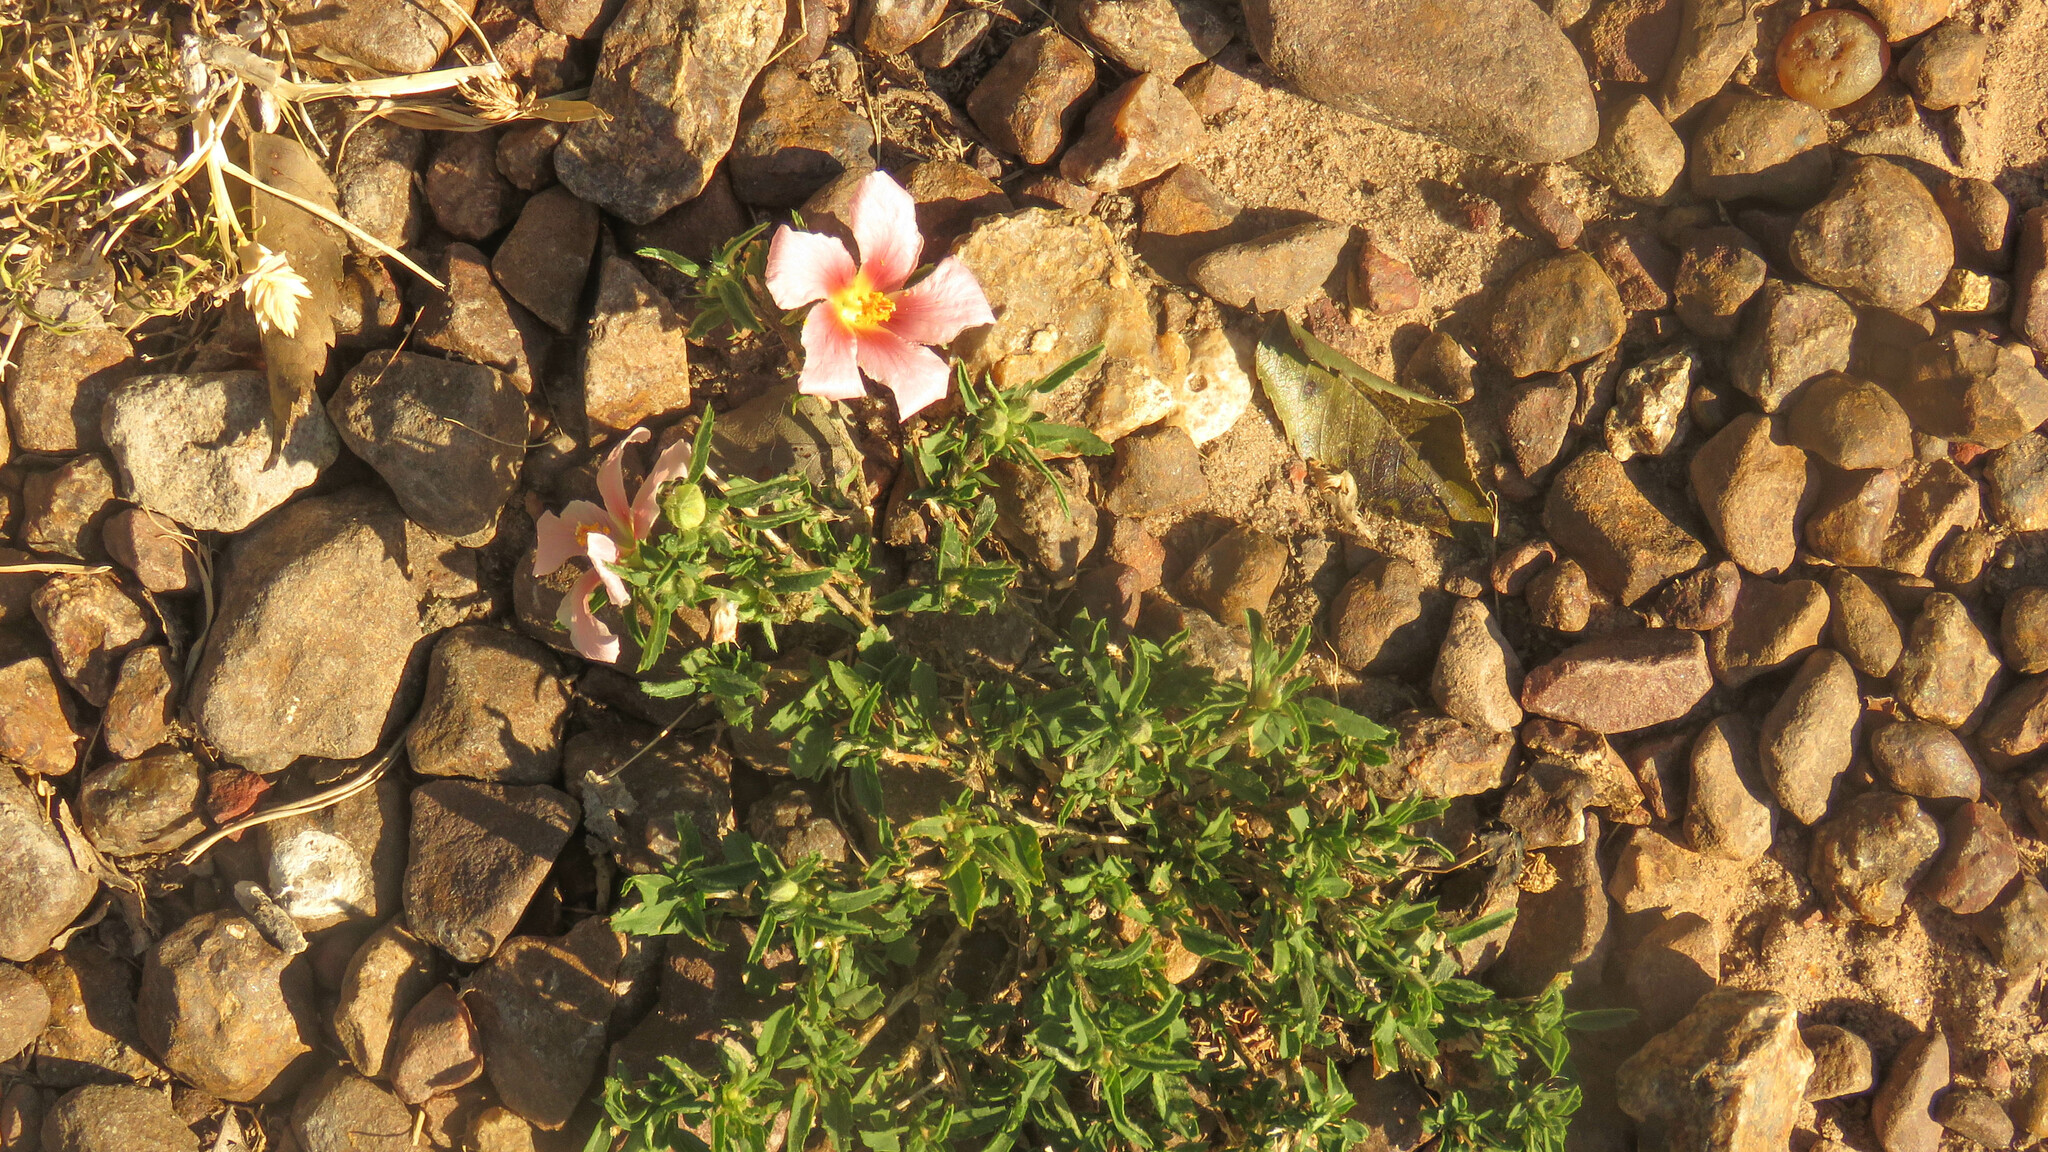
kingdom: Plantae
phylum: Tracheophyta
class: Magnoliopsida
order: Malvales
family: Malvaceae
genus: Sida
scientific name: Sida anomala
